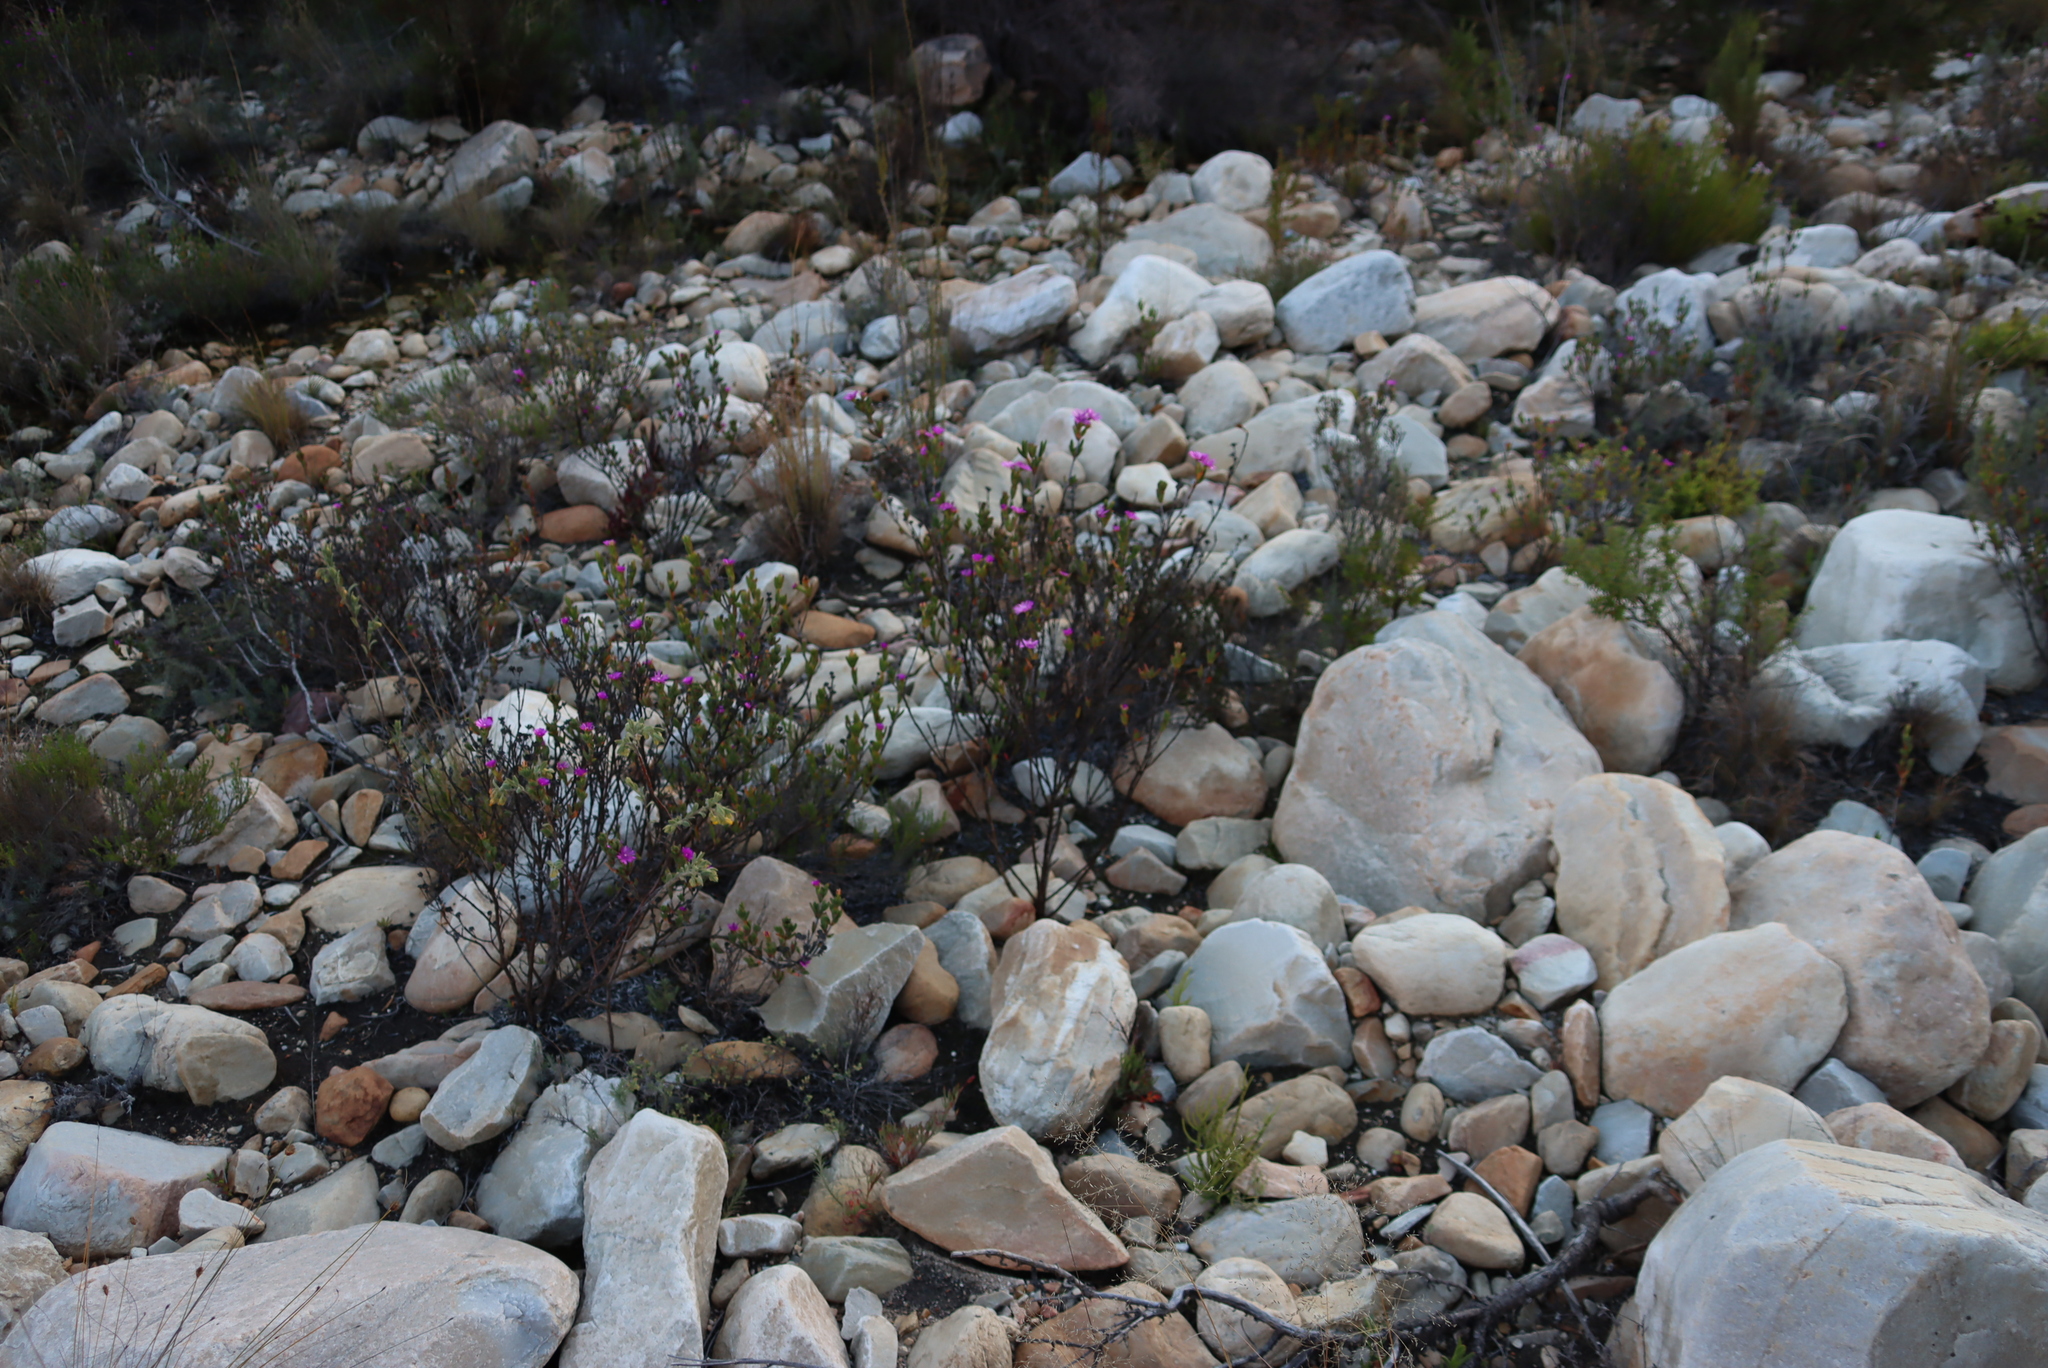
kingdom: Plantae
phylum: Tracheophyta
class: Magnoliopsida
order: Caryophyllales
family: Aizoaceae
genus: Esterhuysenia
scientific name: Esterhuysenia knysnana
